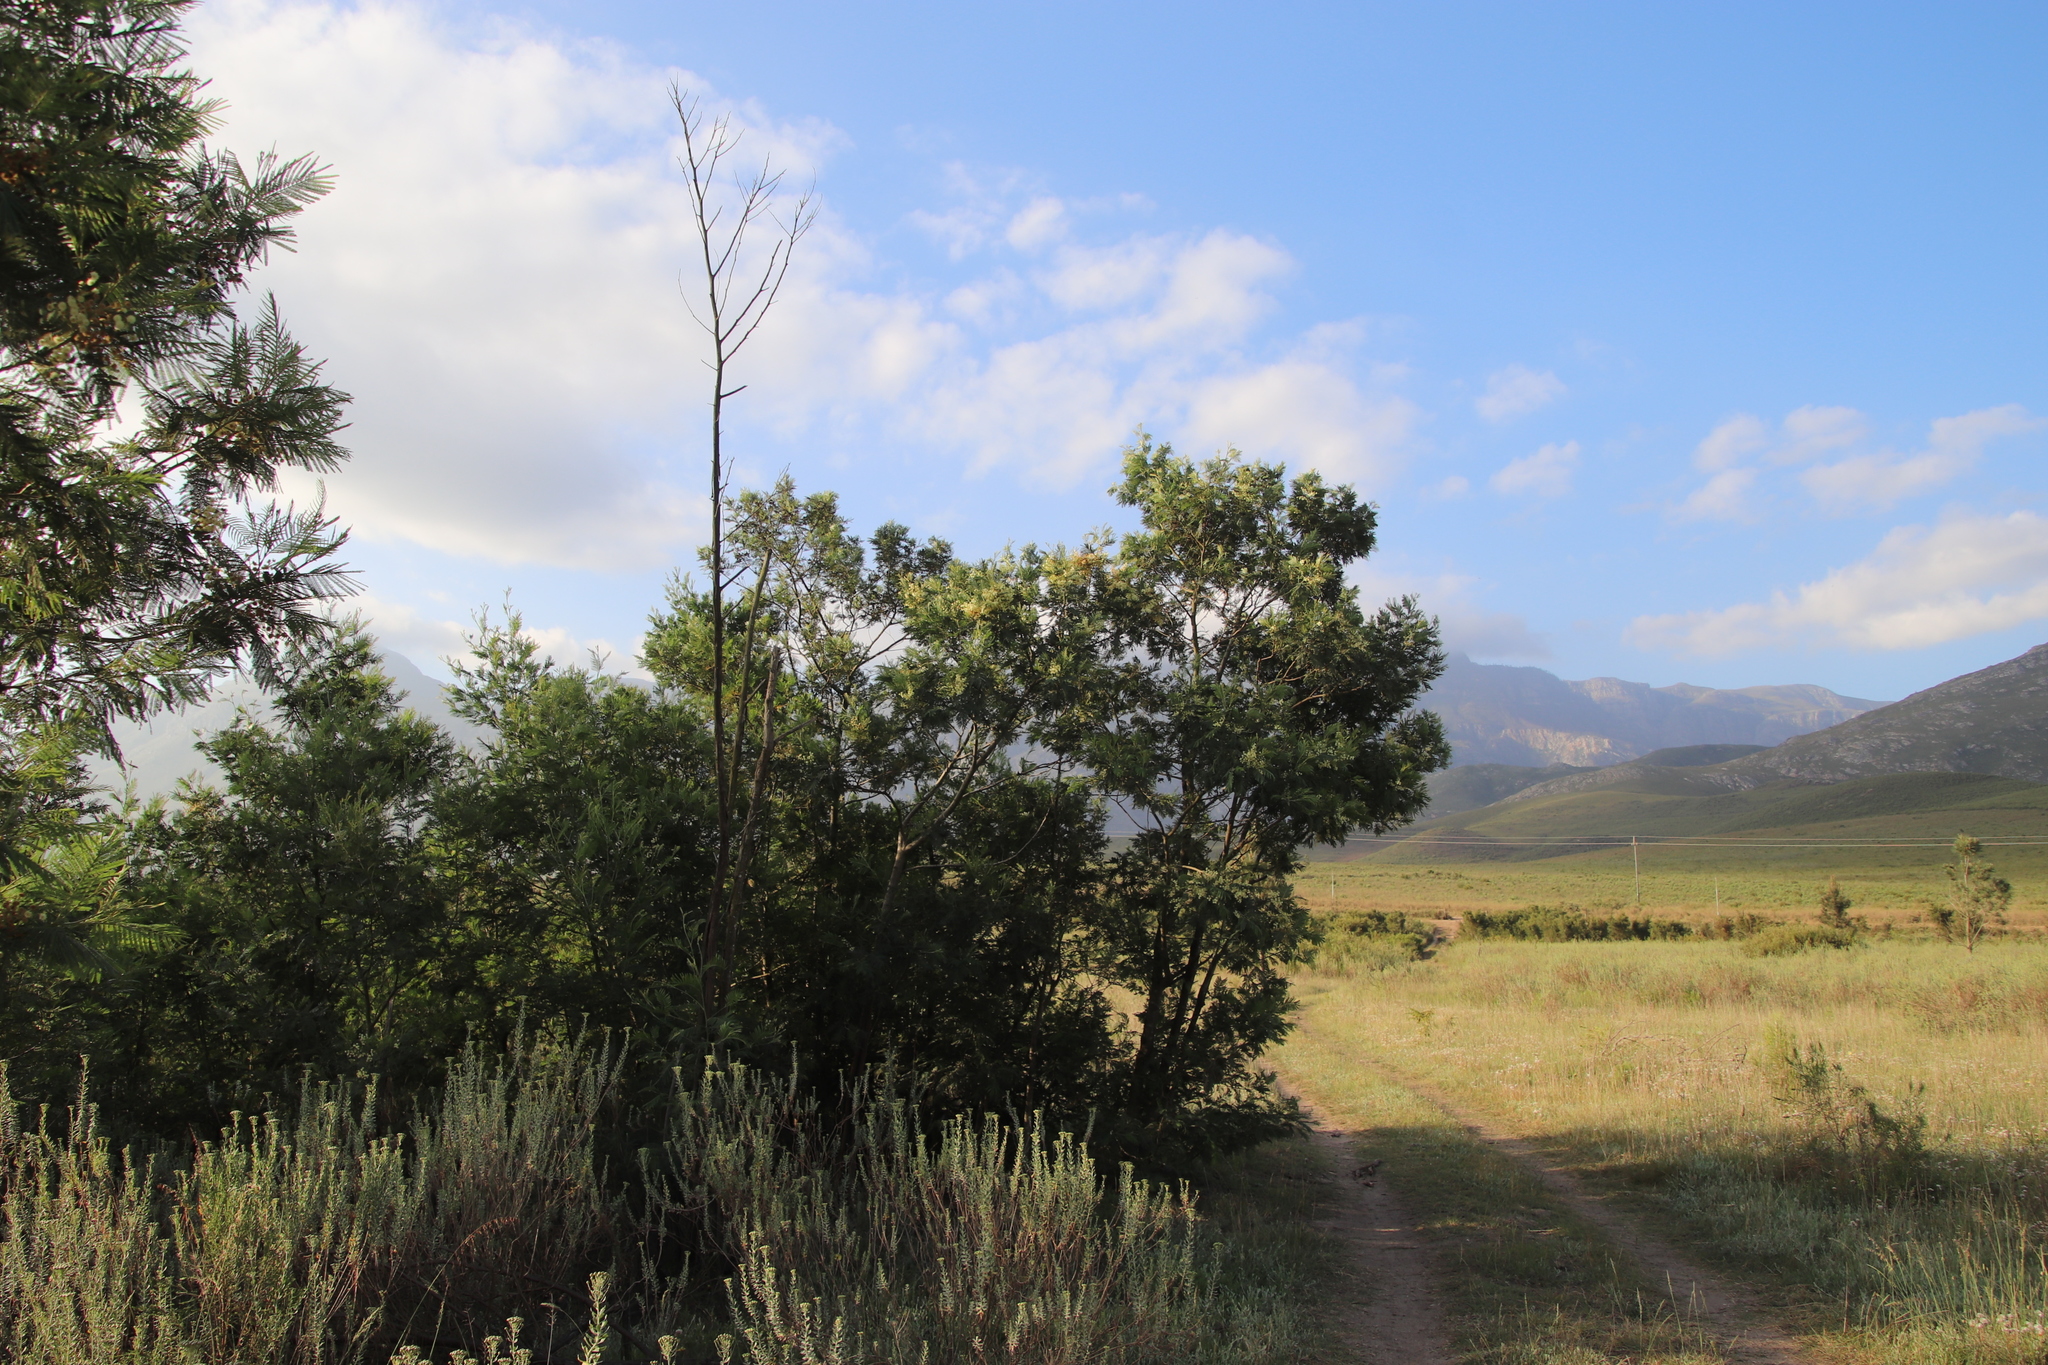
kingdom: Plantae
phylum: Tracheophyta
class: Magnoliopsida
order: Fabales
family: Fabaceae
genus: Acacia
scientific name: Acacia mearnsii
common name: Black wattle
